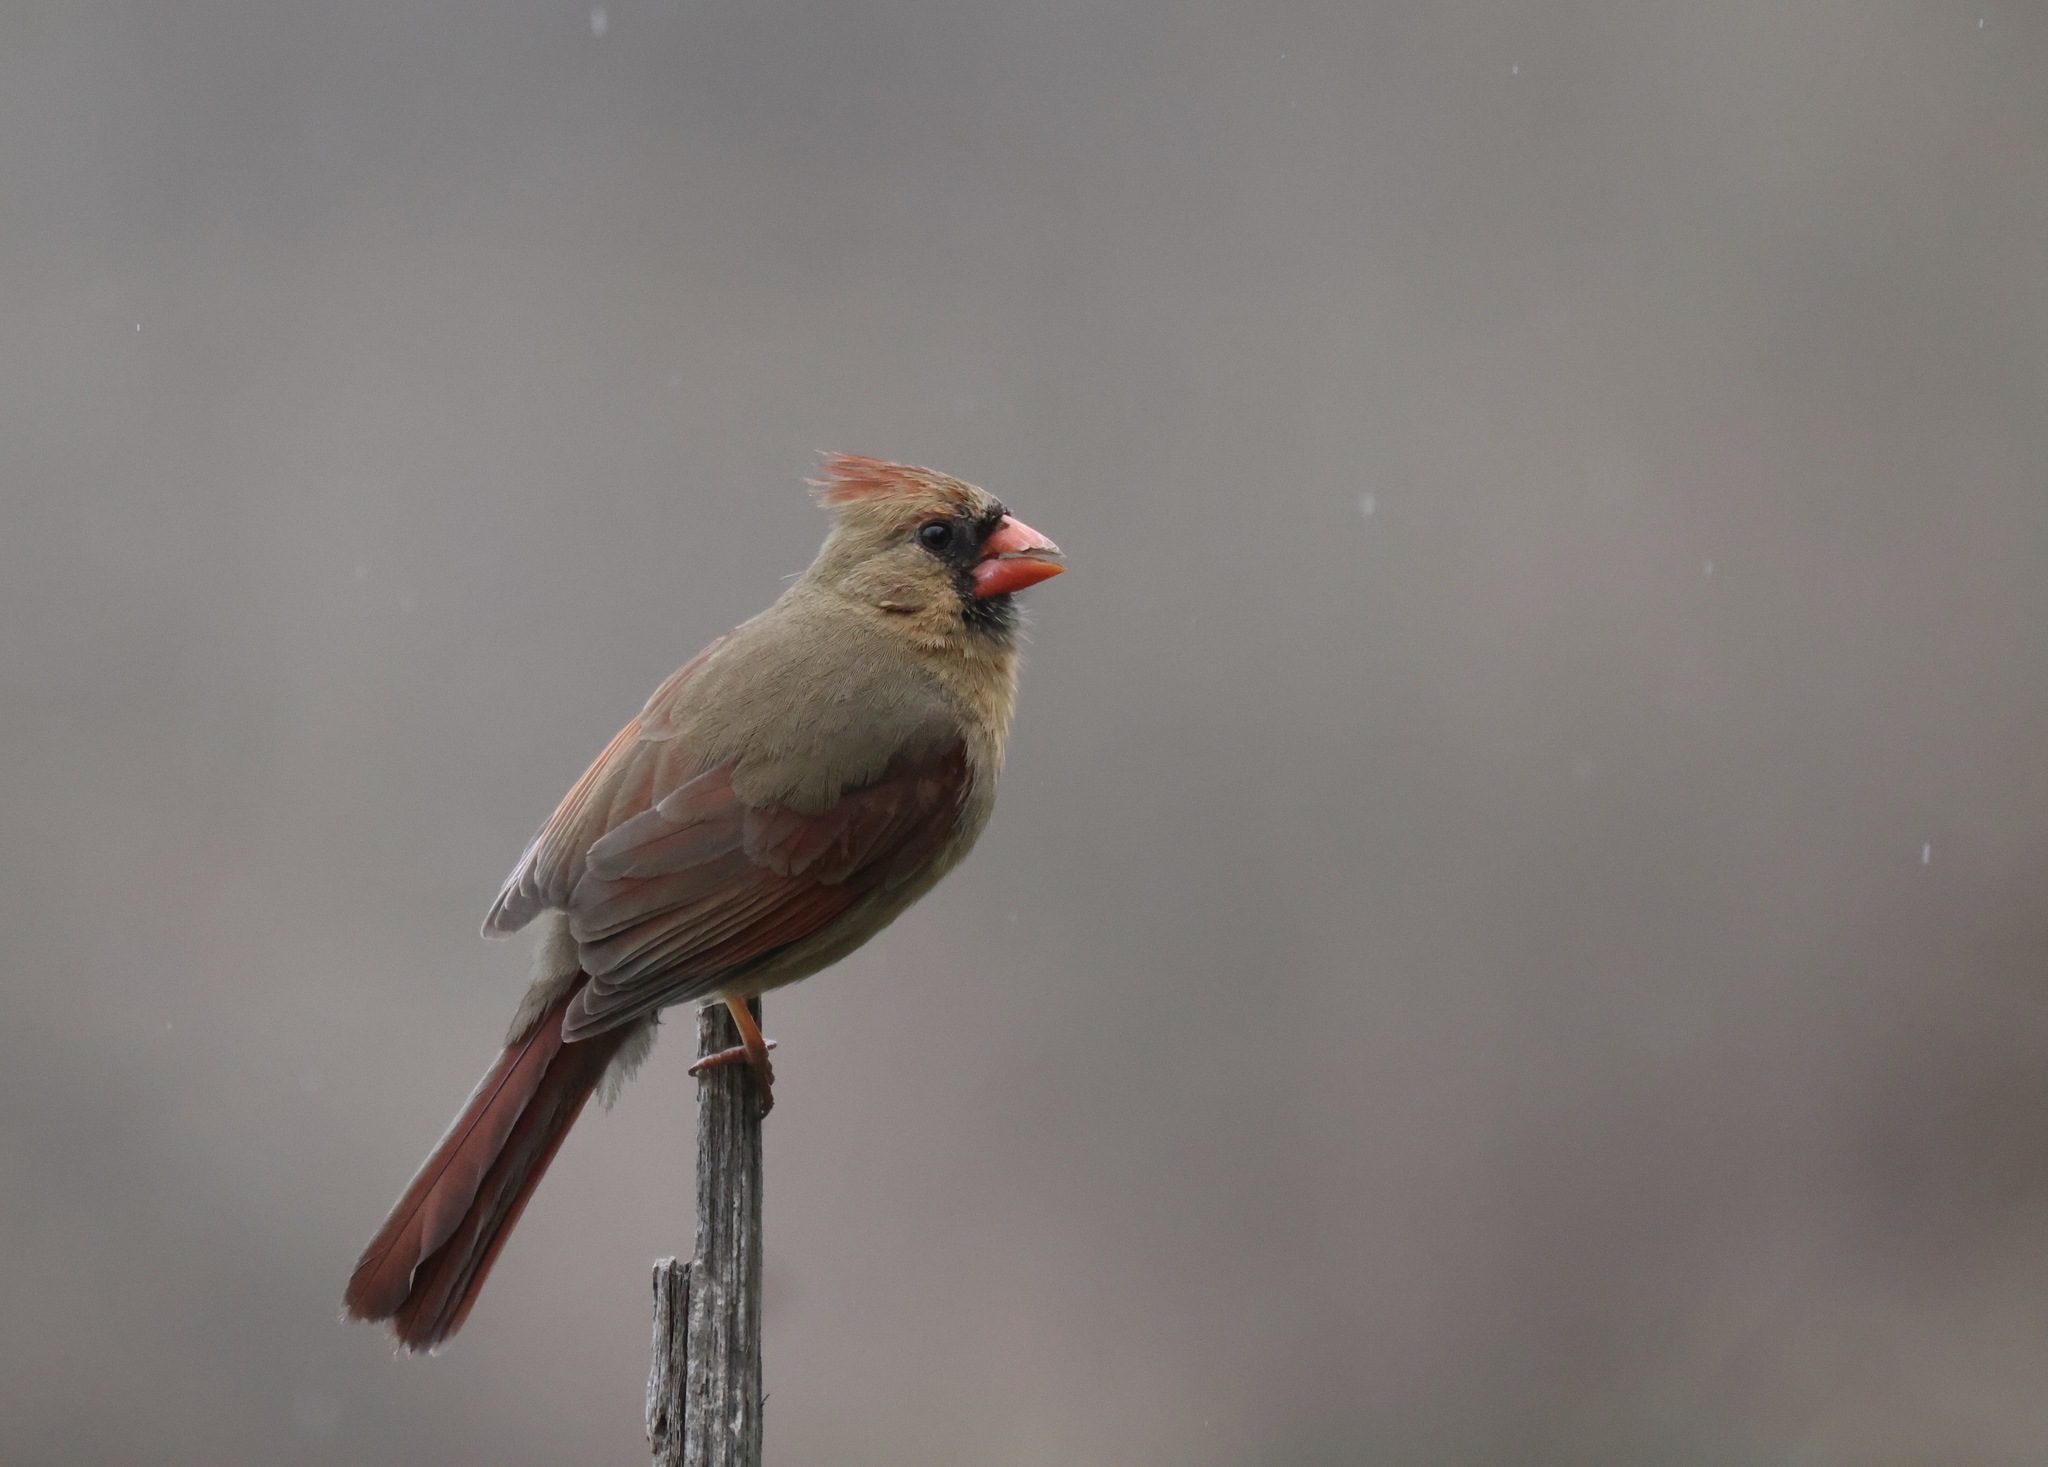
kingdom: Animalia
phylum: Chordata
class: Aves
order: Passeriformes
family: Cardinalidae
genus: Cardinalis
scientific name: Cardinalis cardinalis
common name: Northern cardinal
